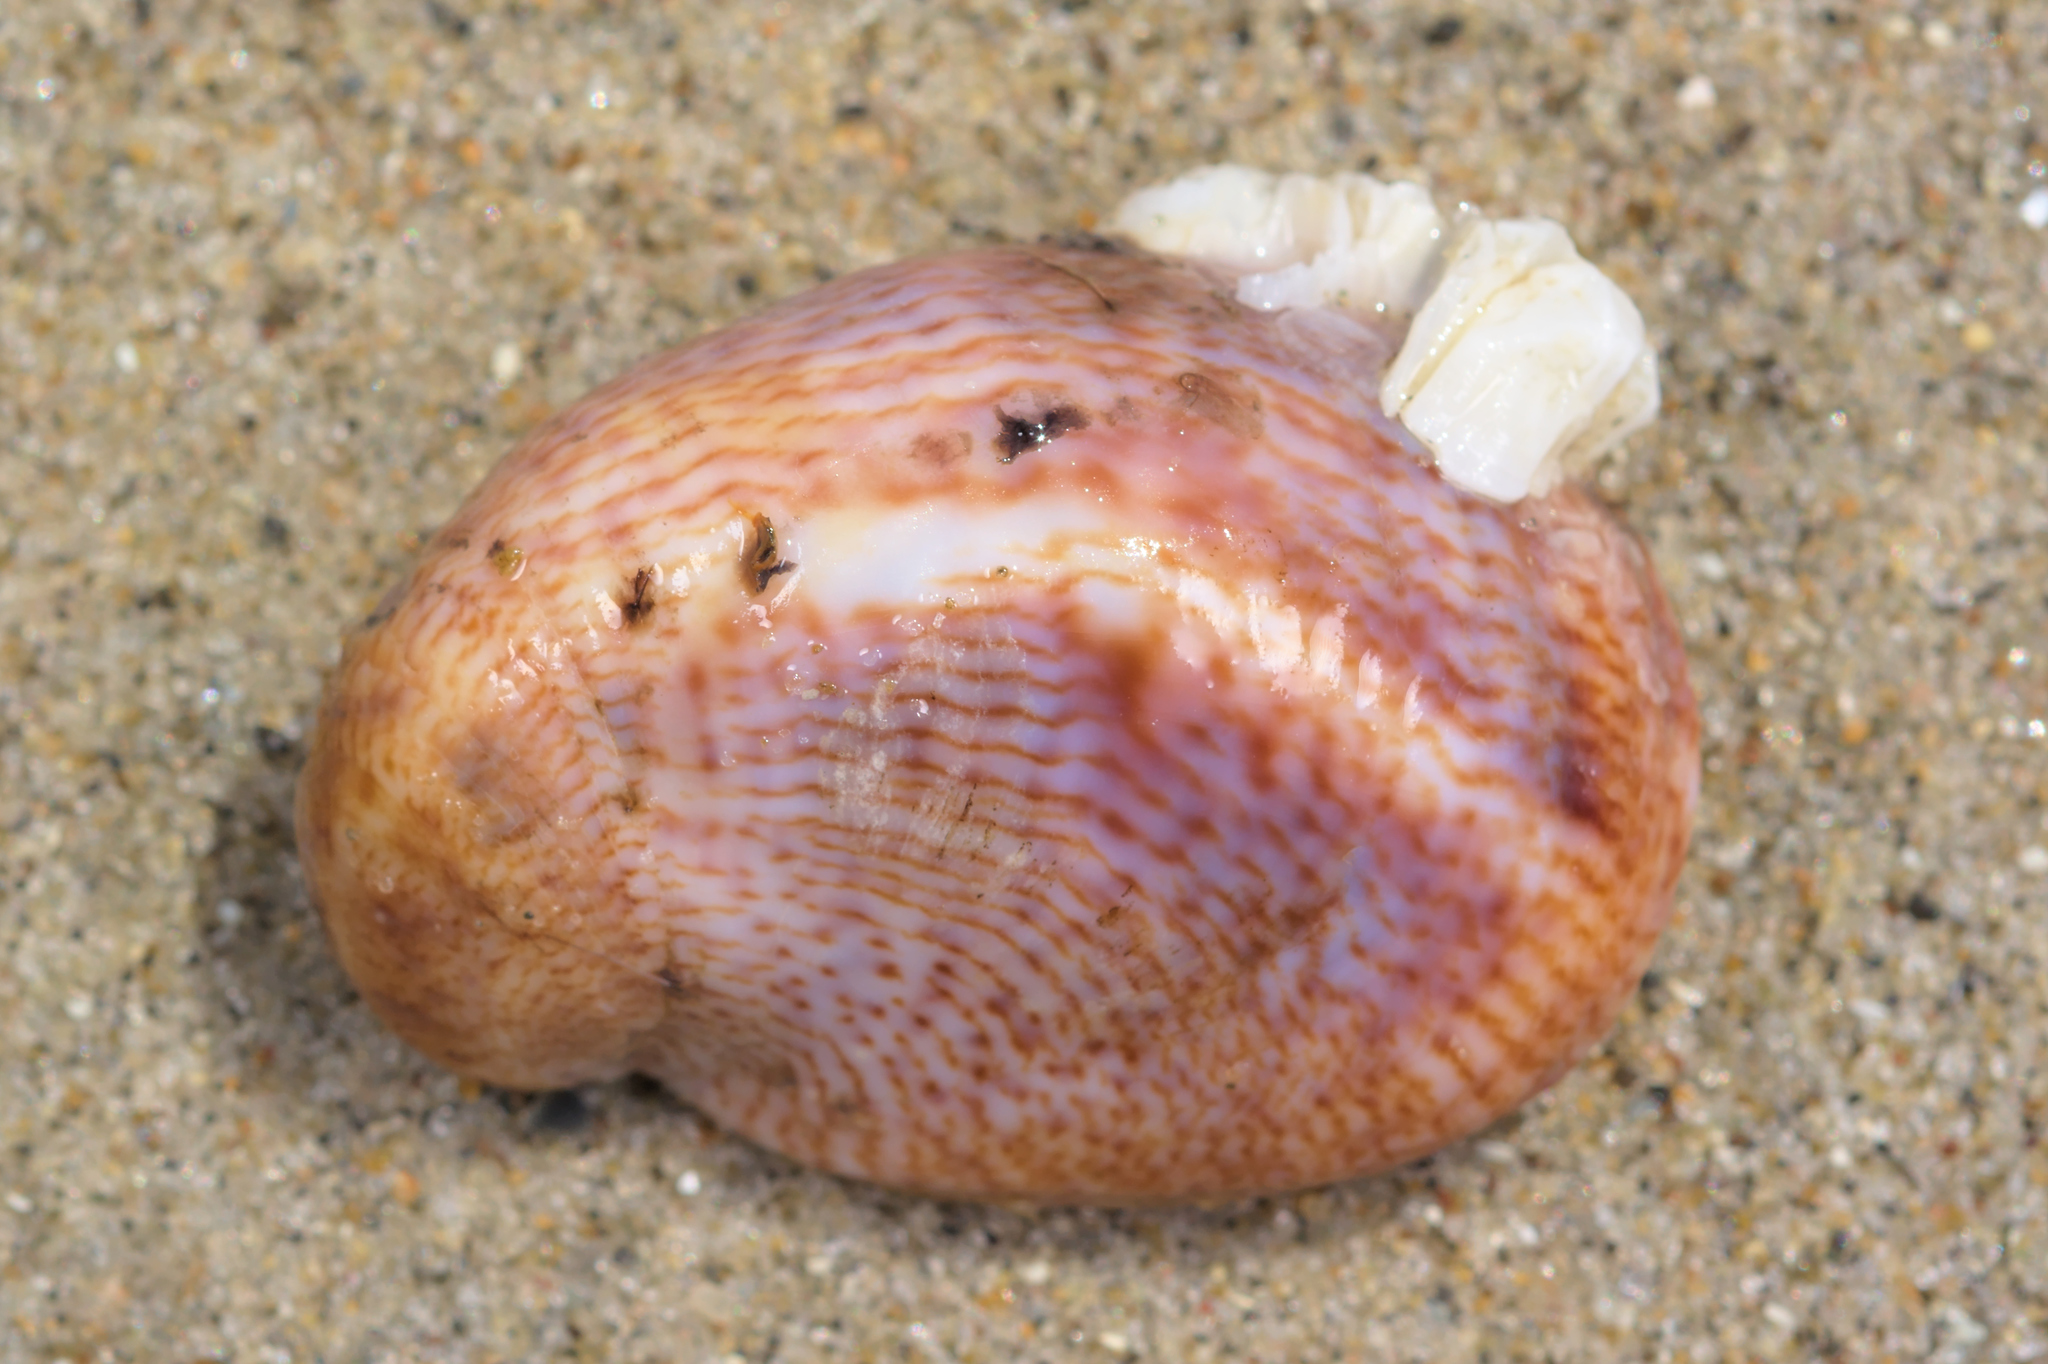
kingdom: Animalia
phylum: Mollusca
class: Gastropoda
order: Littorinimorpha
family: Calyptraeidae
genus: Crepidula
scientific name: Crepidula fornicata
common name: Slipper limpet
